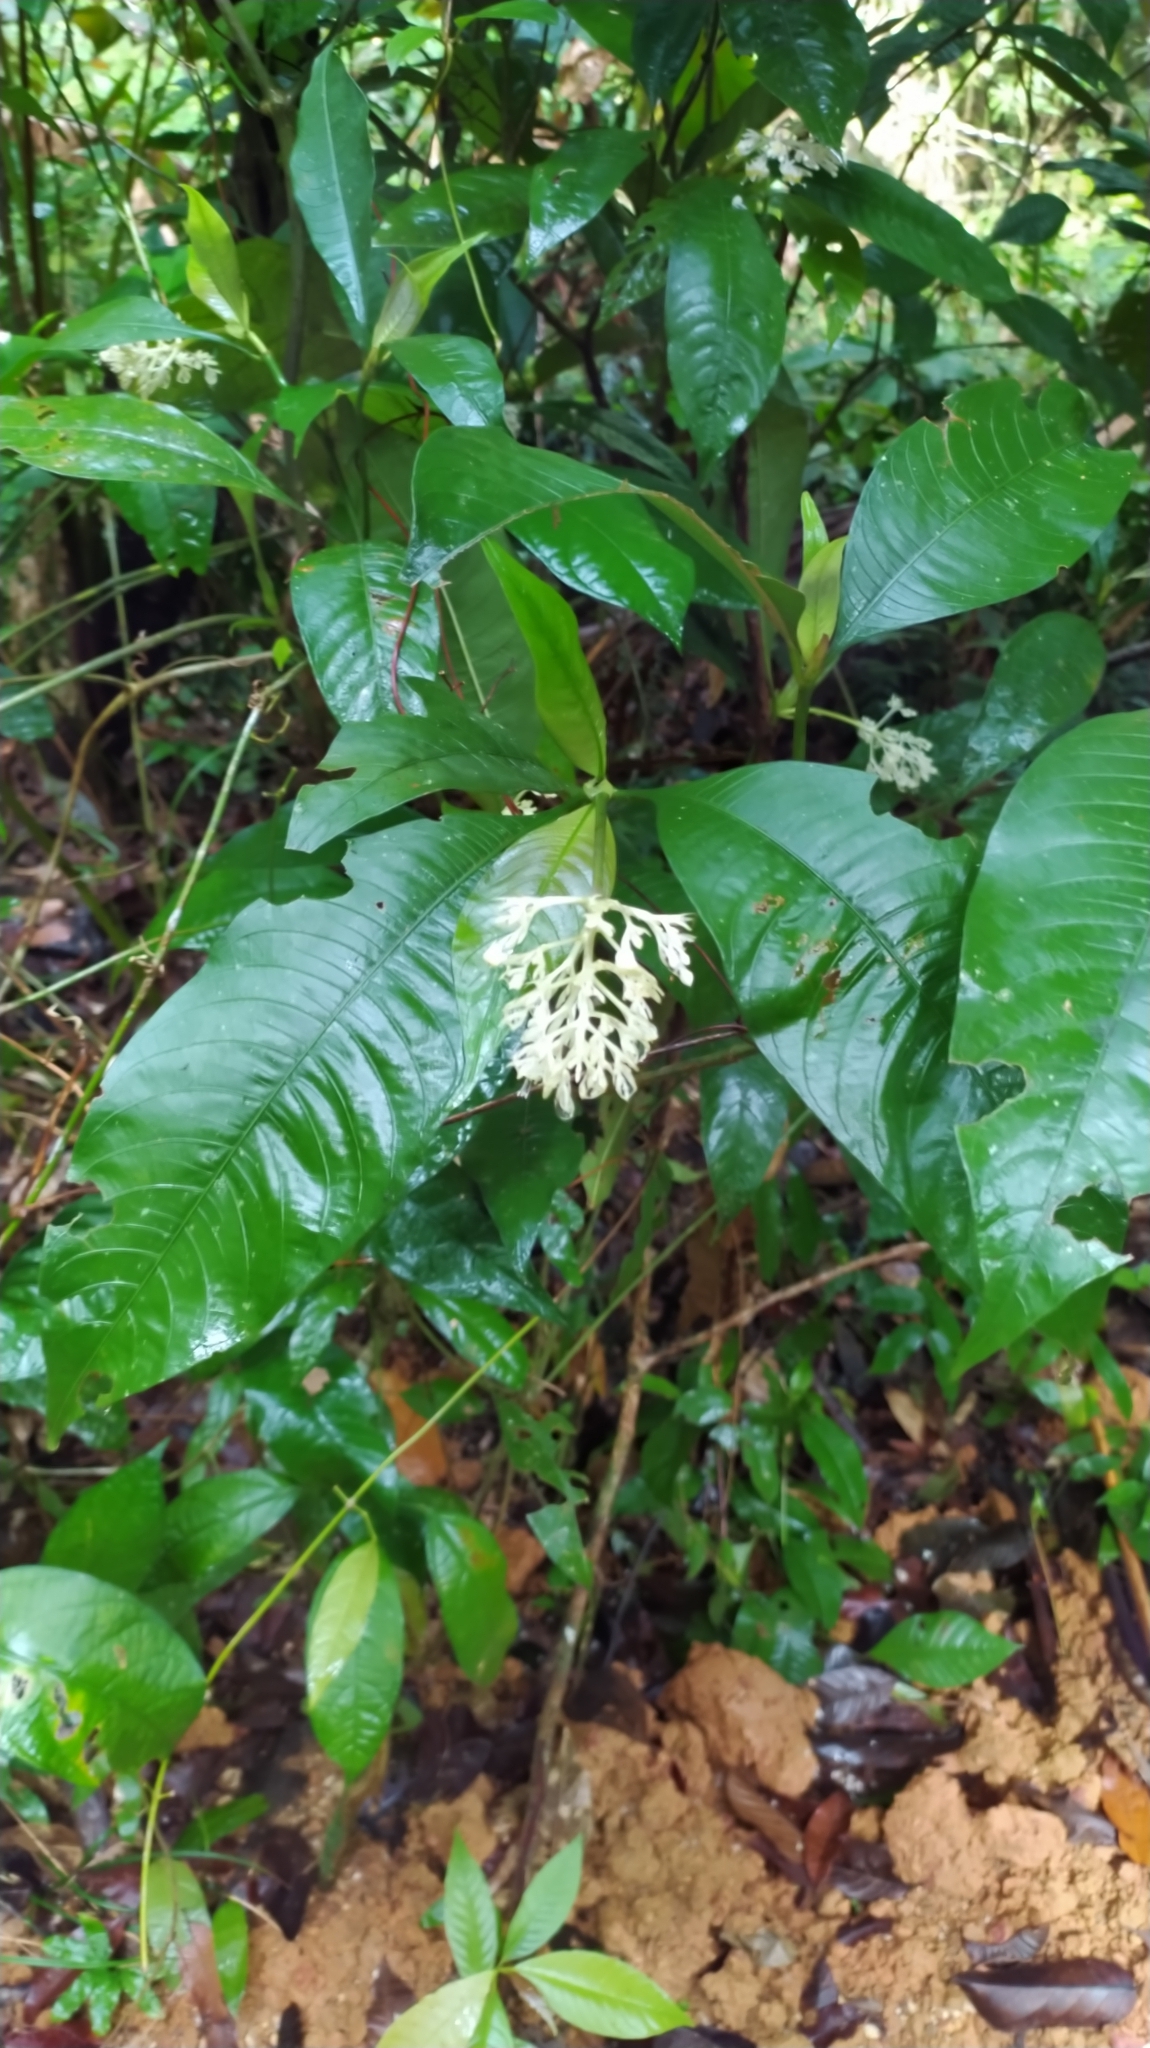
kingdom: Plantae
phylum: Tracheophyta
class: Magnoliopsida
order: Gentianales
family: Rubiaceae
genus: Palicourea
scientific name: Palicourea violacea
